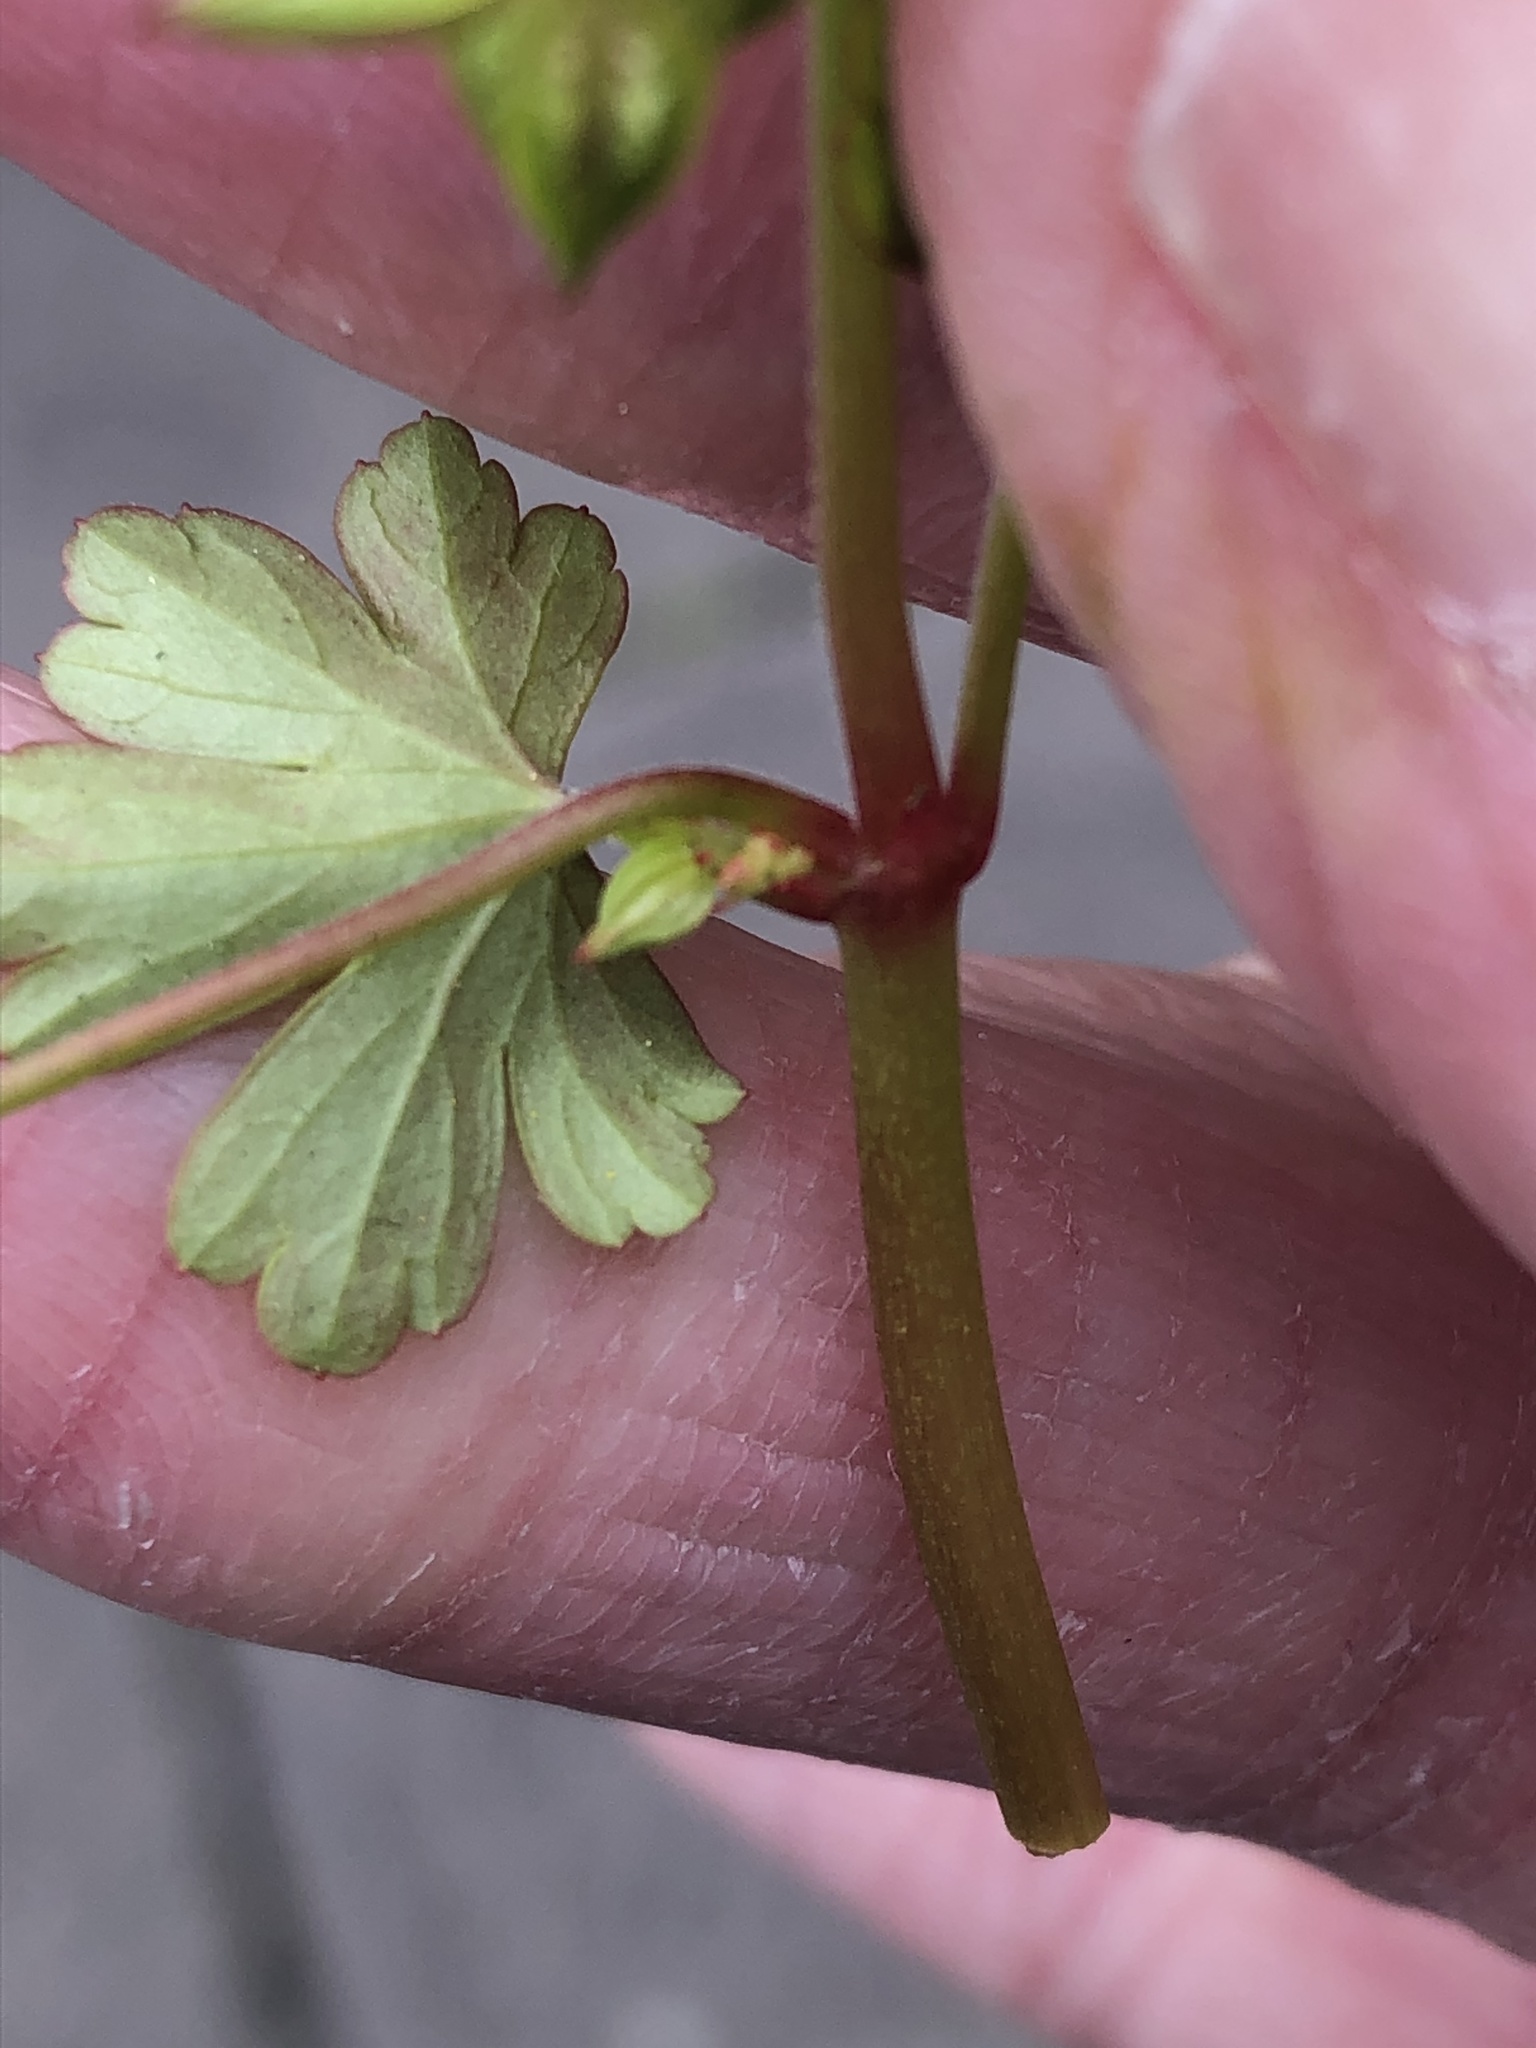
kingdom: Plantae
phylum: Tracheophyta
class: Magnoliopsida
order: Geraniales
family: Geraniaceae
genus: Geranium
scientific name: Geranium lucidum
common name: Shining crane's-bill
